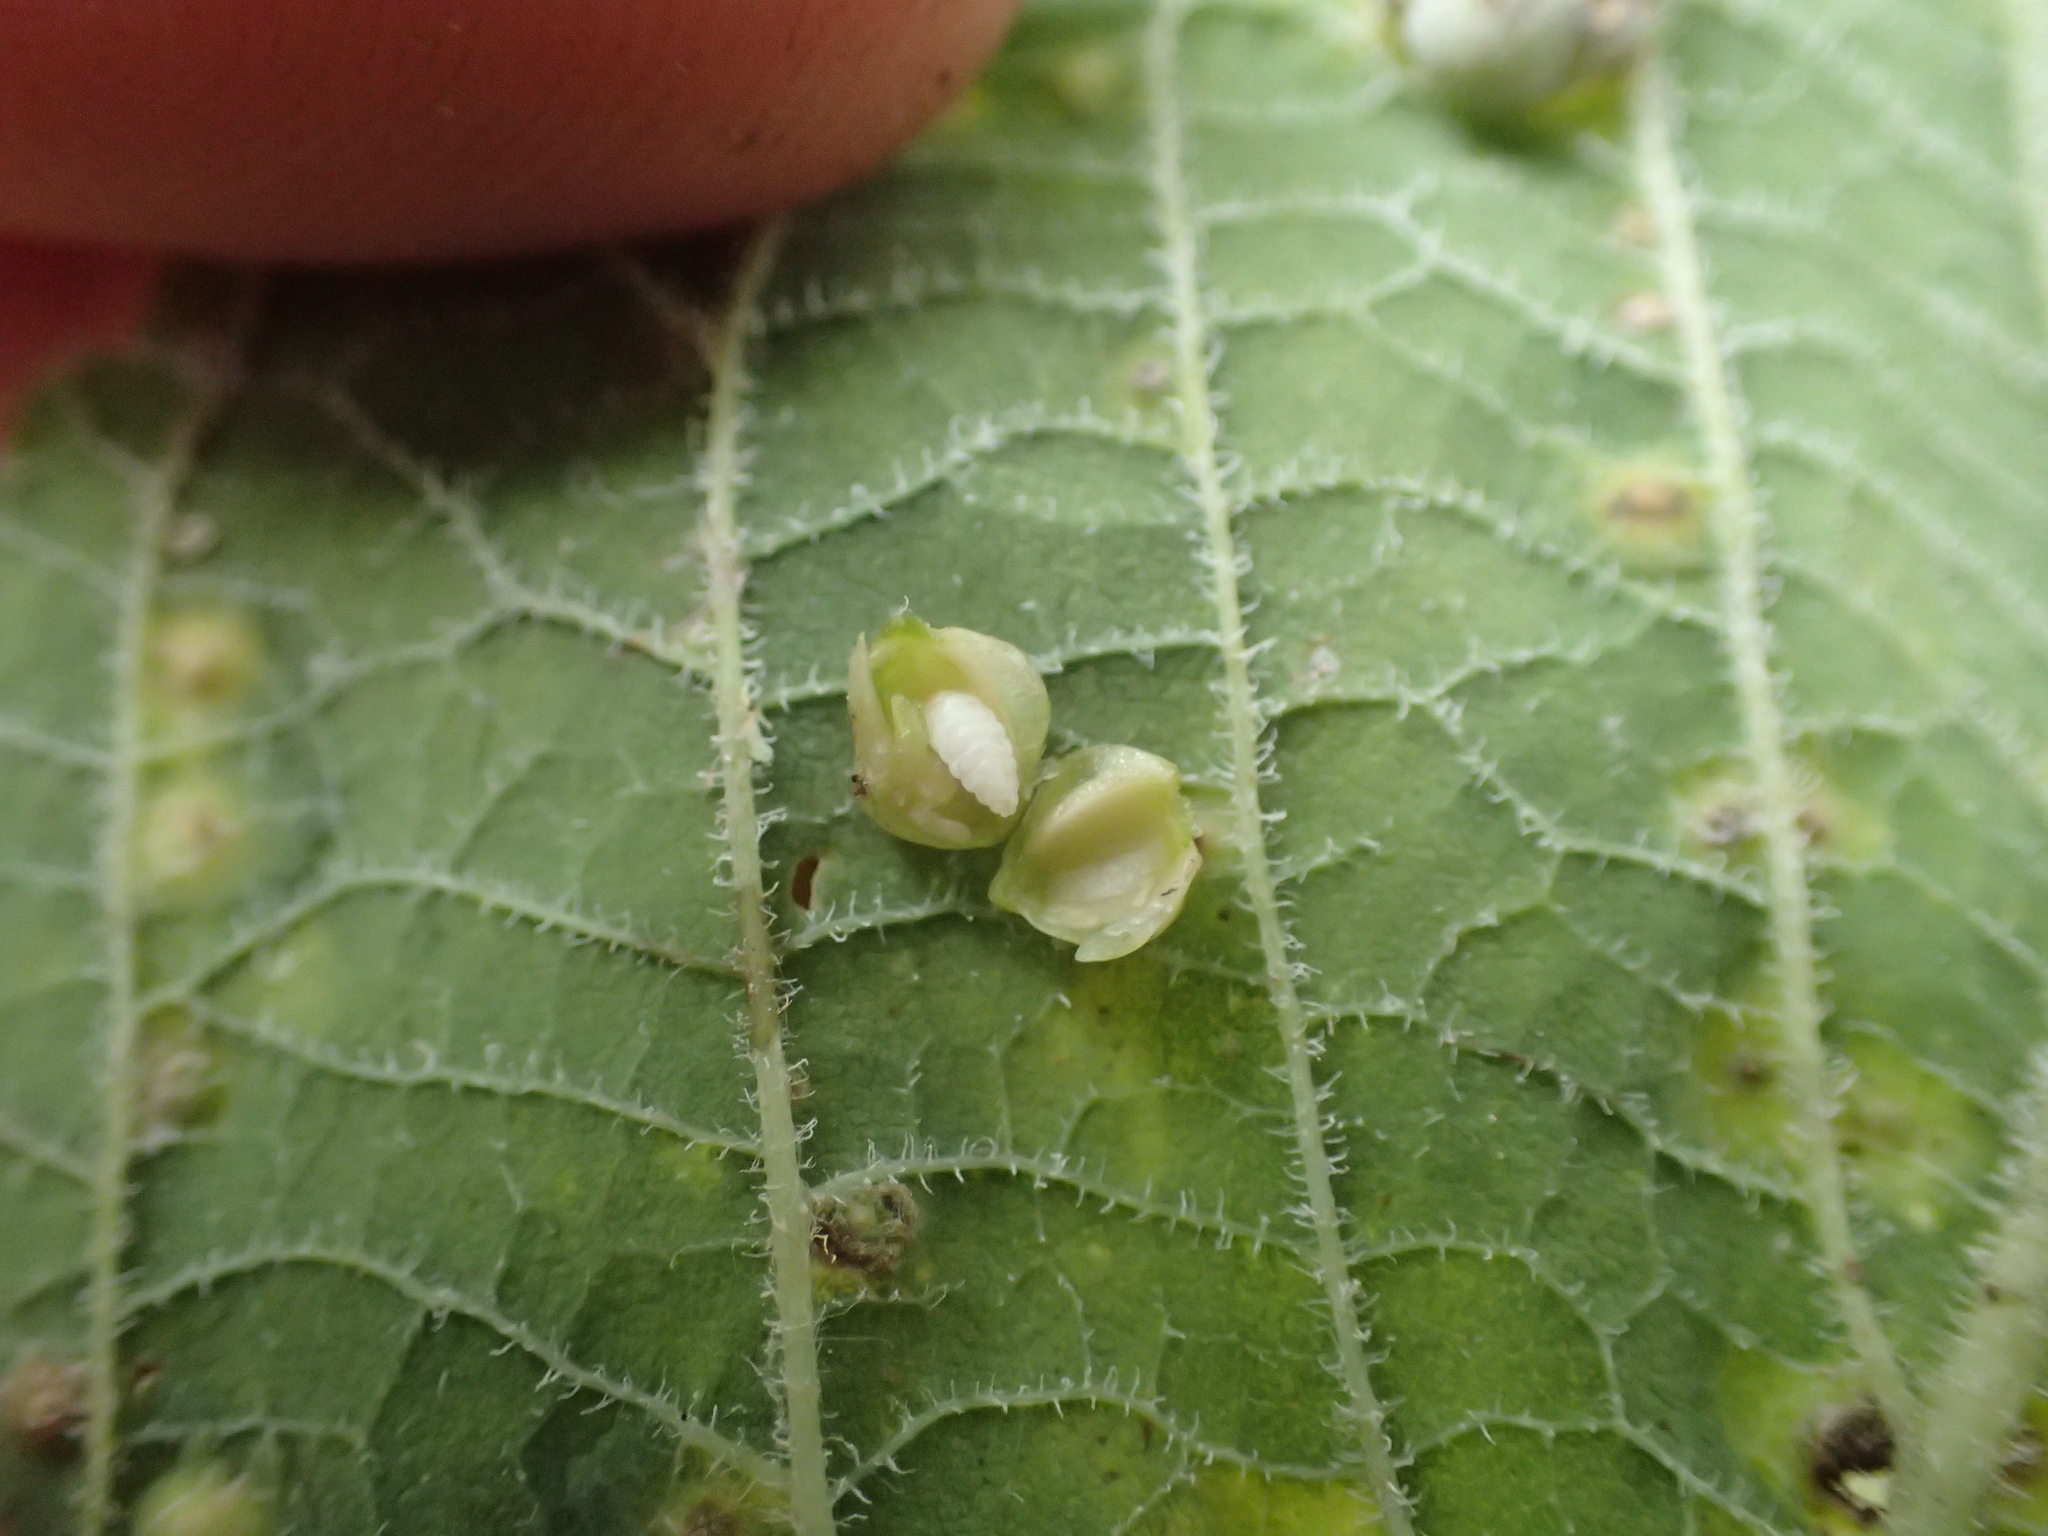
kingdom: Animalia
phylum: Arthropoda
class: Insecta
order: Diptera
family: Cecidomyiidae
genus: Celticecis
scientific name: Celticecis globosa
